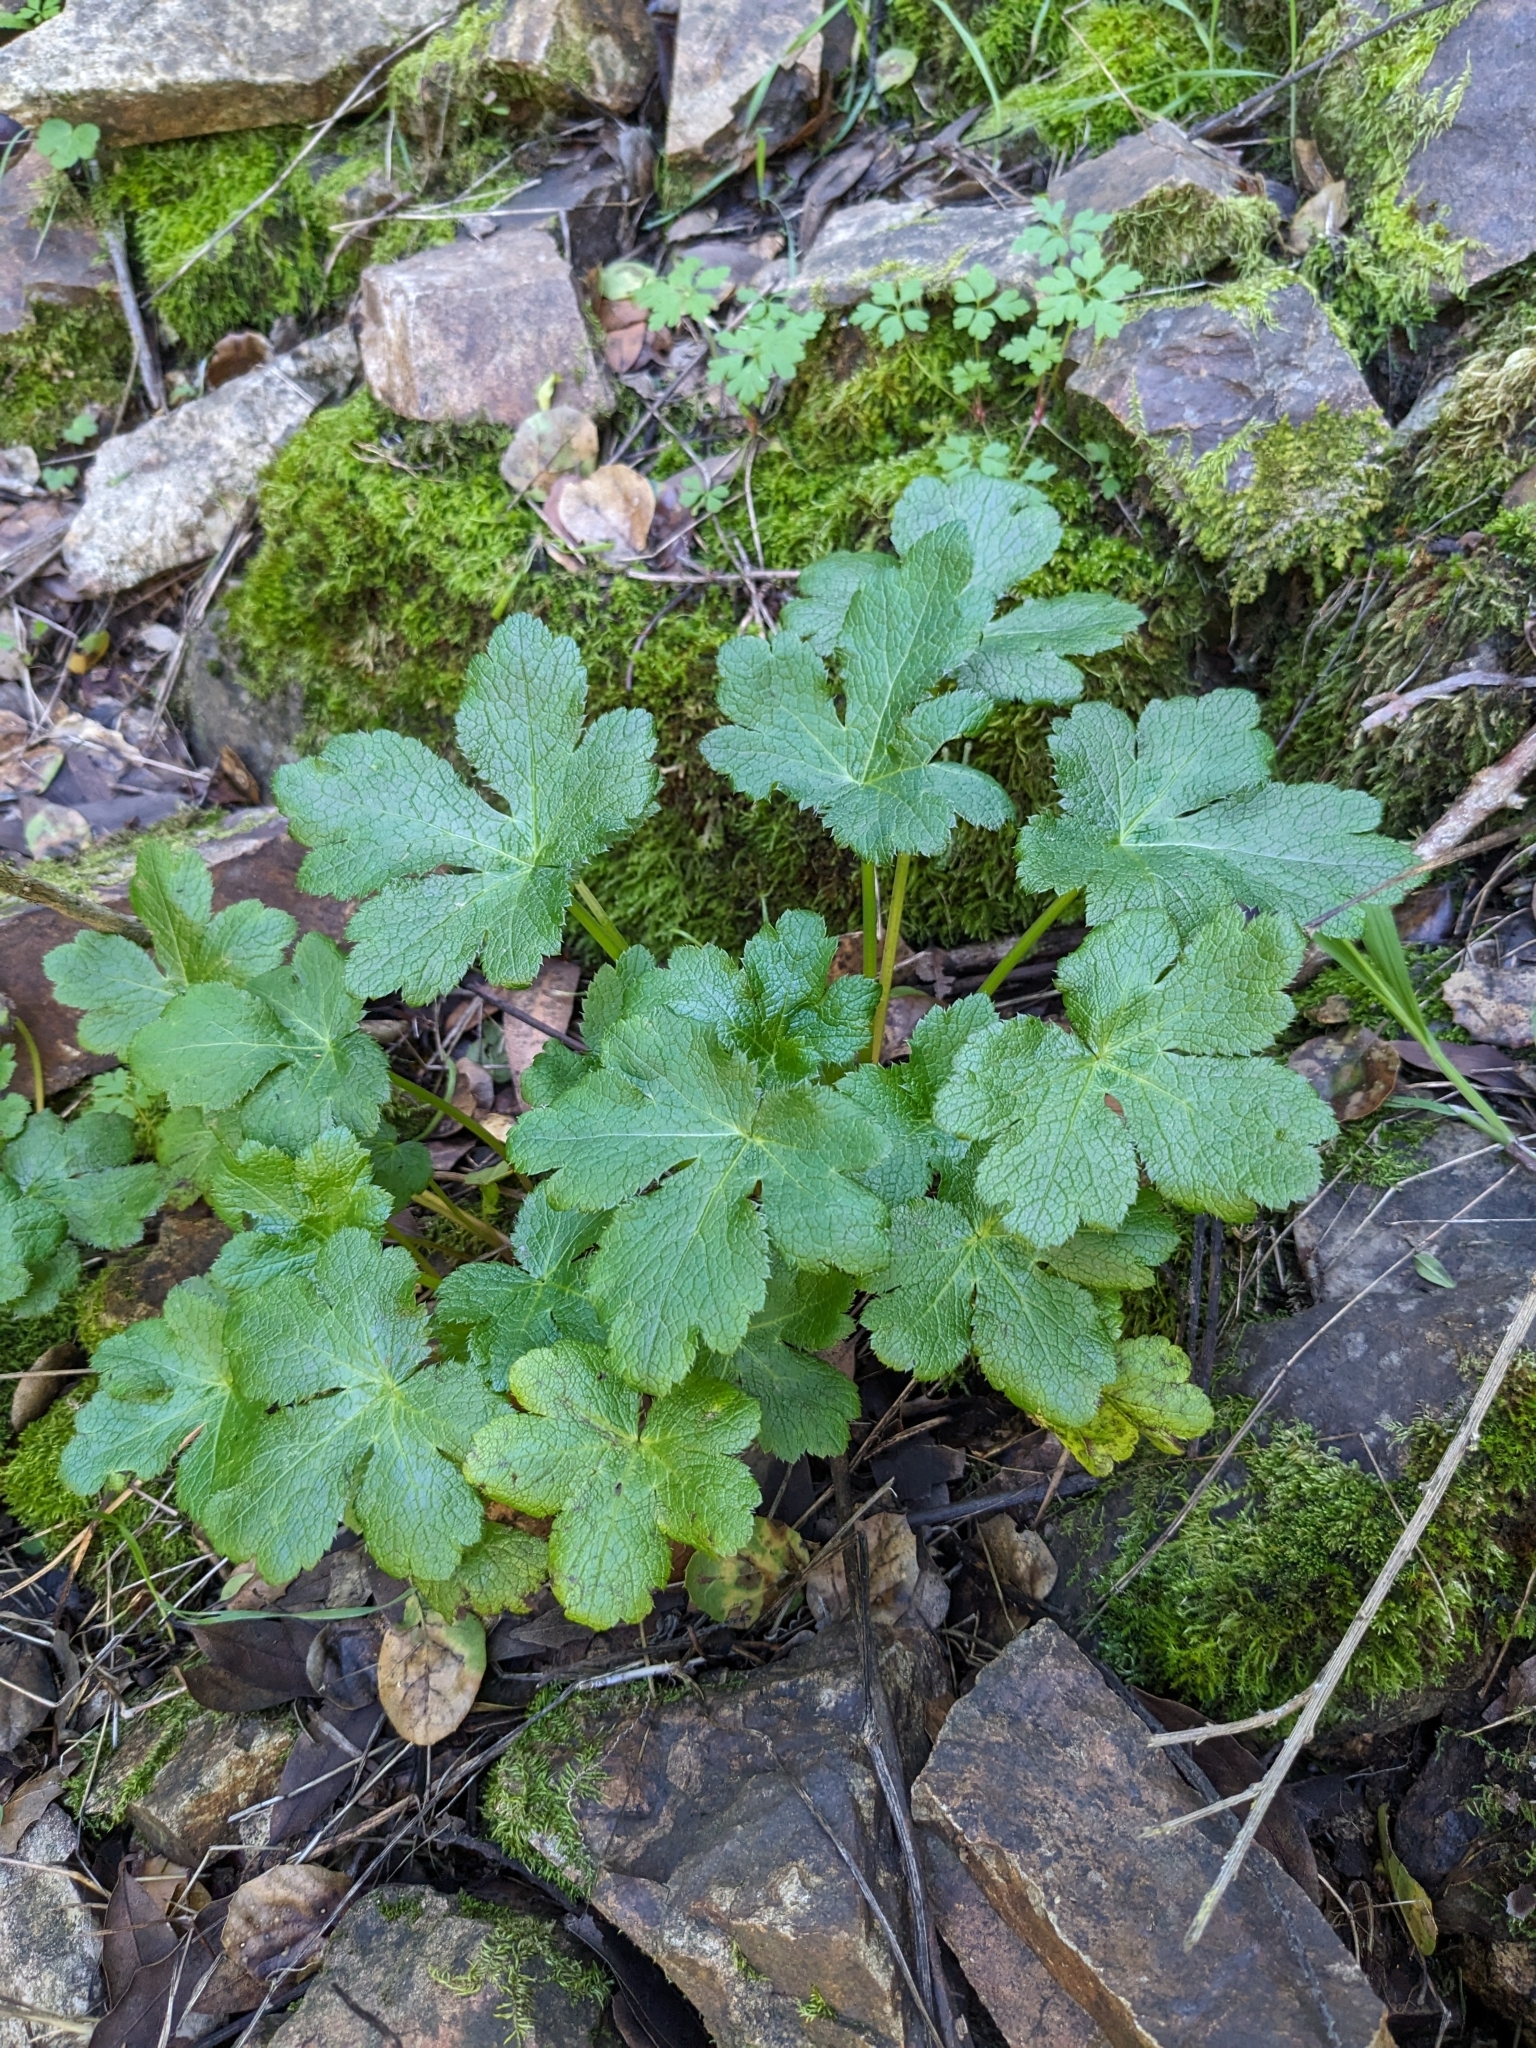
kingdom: Plantae
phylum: Tracheophyta
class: Magnoliopsida
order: Apiales
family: Apiaceae
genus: Sanicula
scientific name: Sanicula crassicaulis
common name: Western snakeroot
